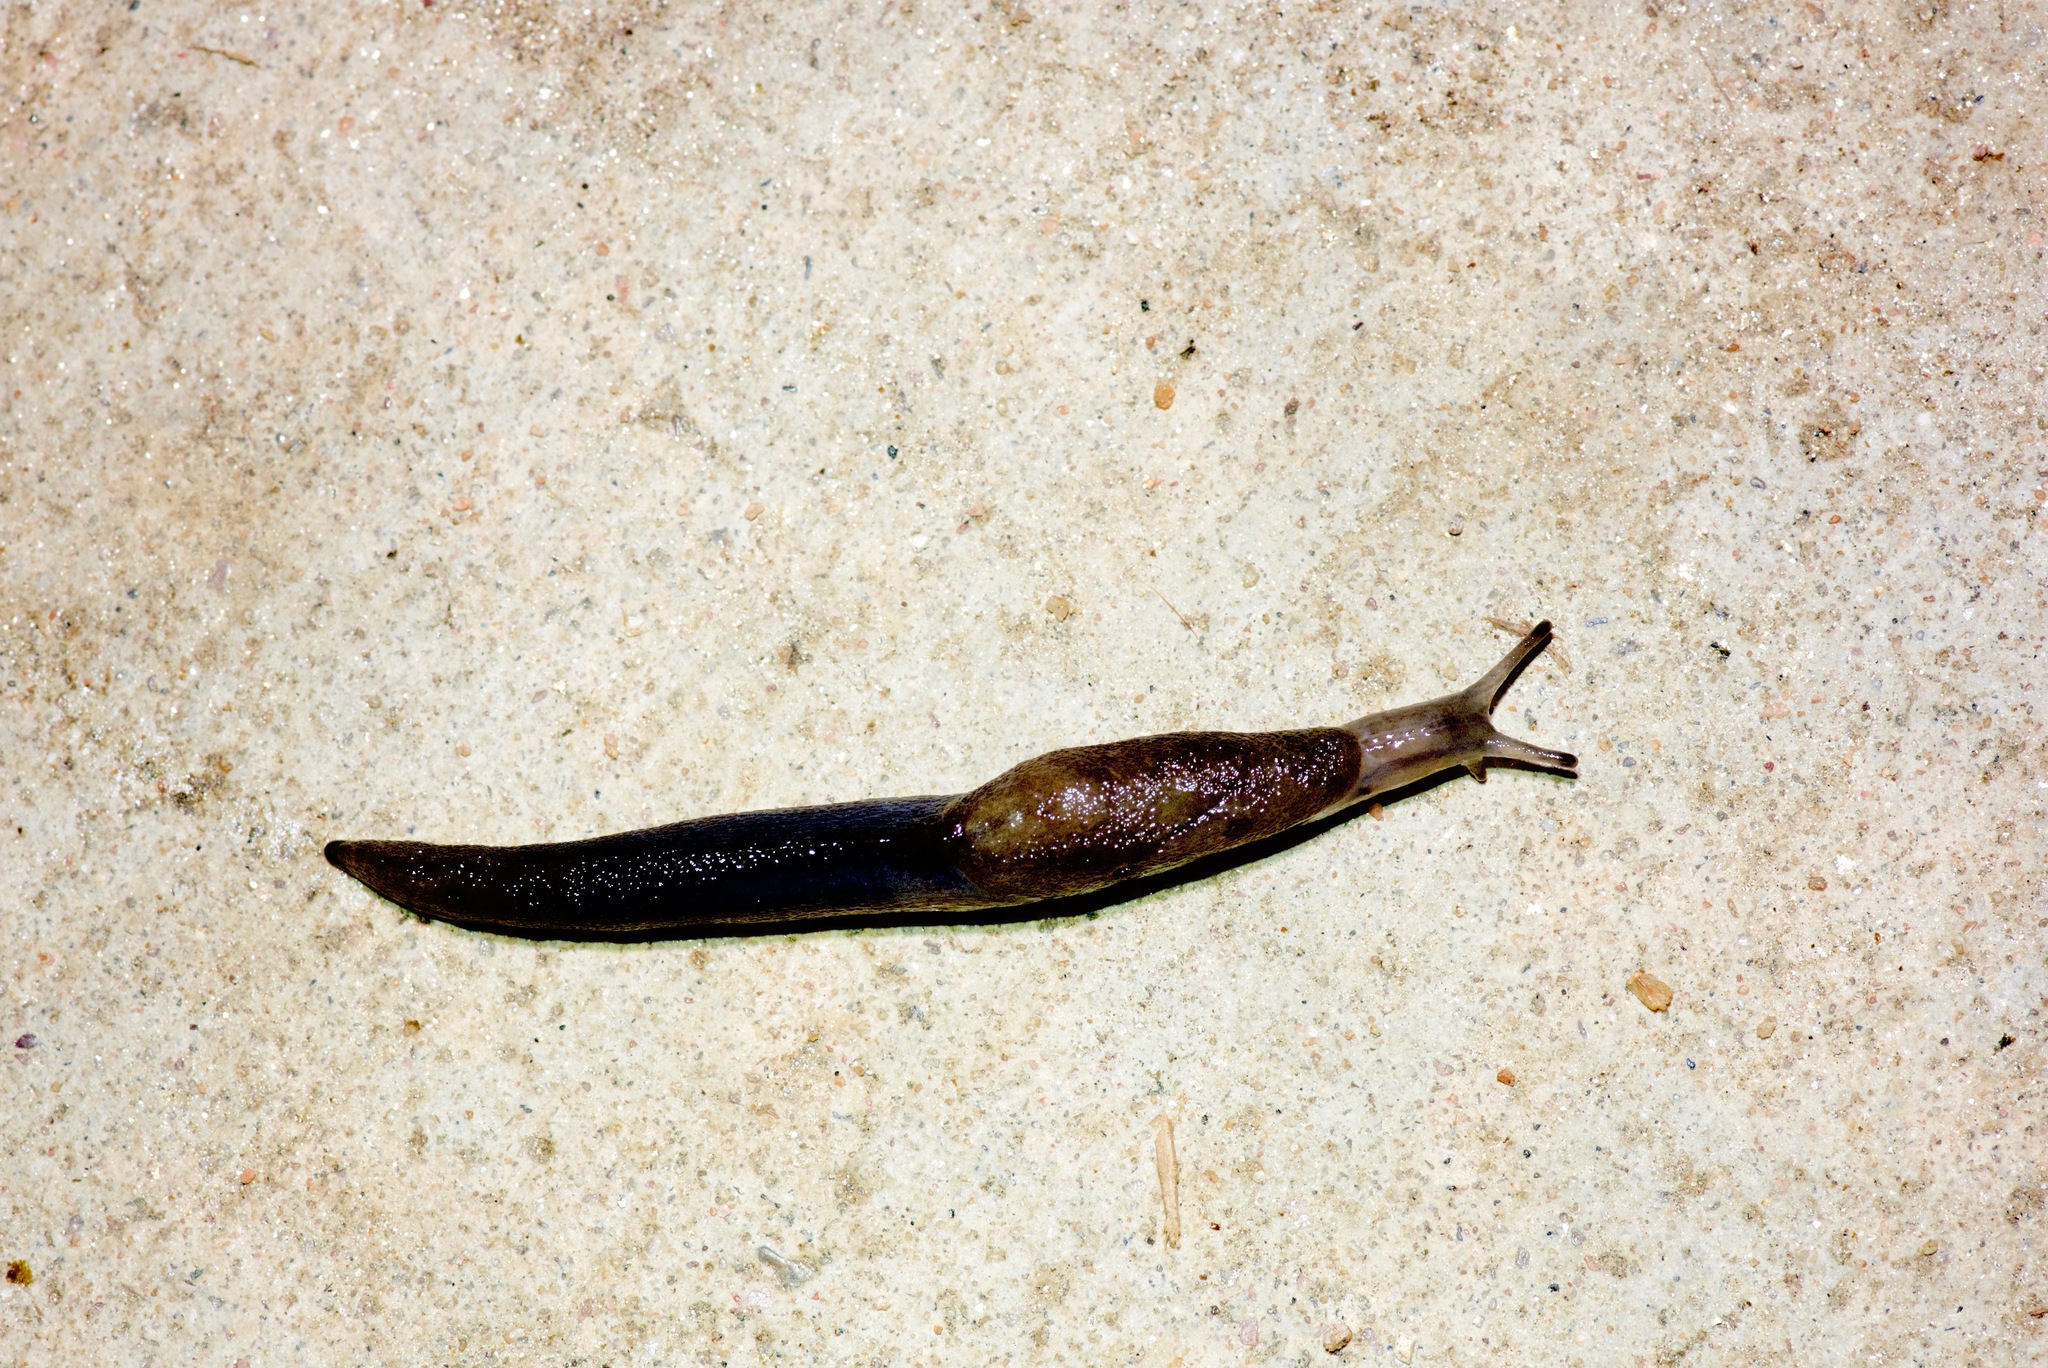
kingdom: Animalia
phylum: Mollusca
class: Gastropoda
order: Stylommatophora
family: Milacidae
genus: Milax
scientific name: Milax gagates
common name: Greenhouse slug
